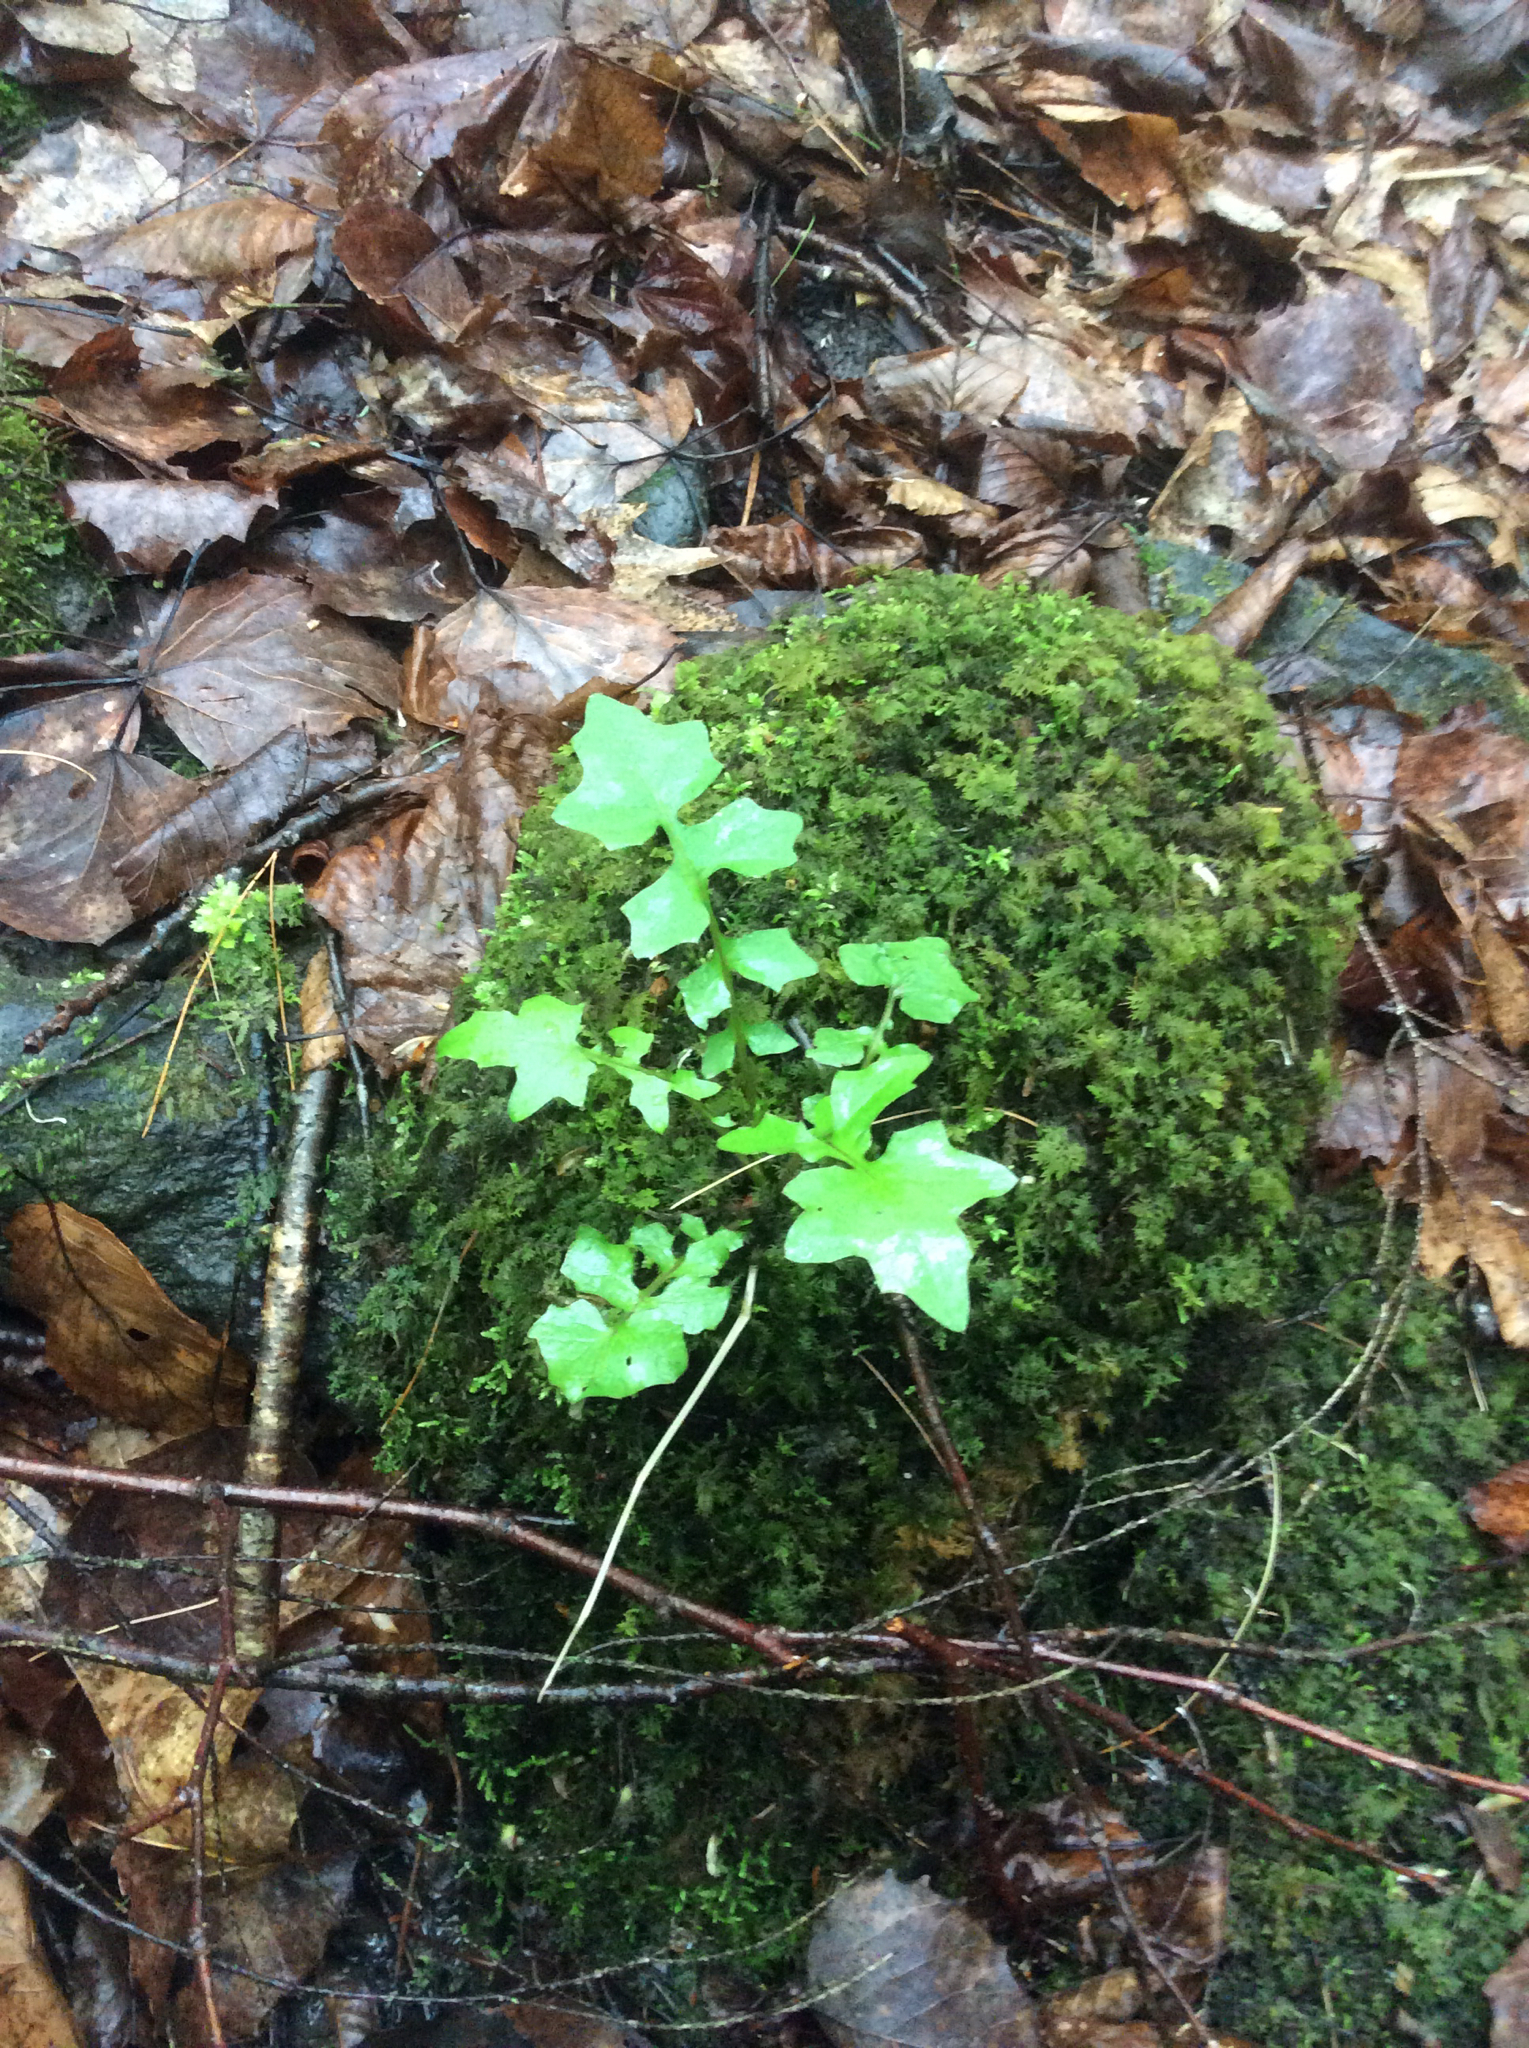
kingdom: Plantae
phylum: Tracheophyta
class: Magnoliopsida
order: Asterales
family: Asteraceae
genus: Mycelis
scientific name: Mycelis muralis
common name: Wall lettuce
